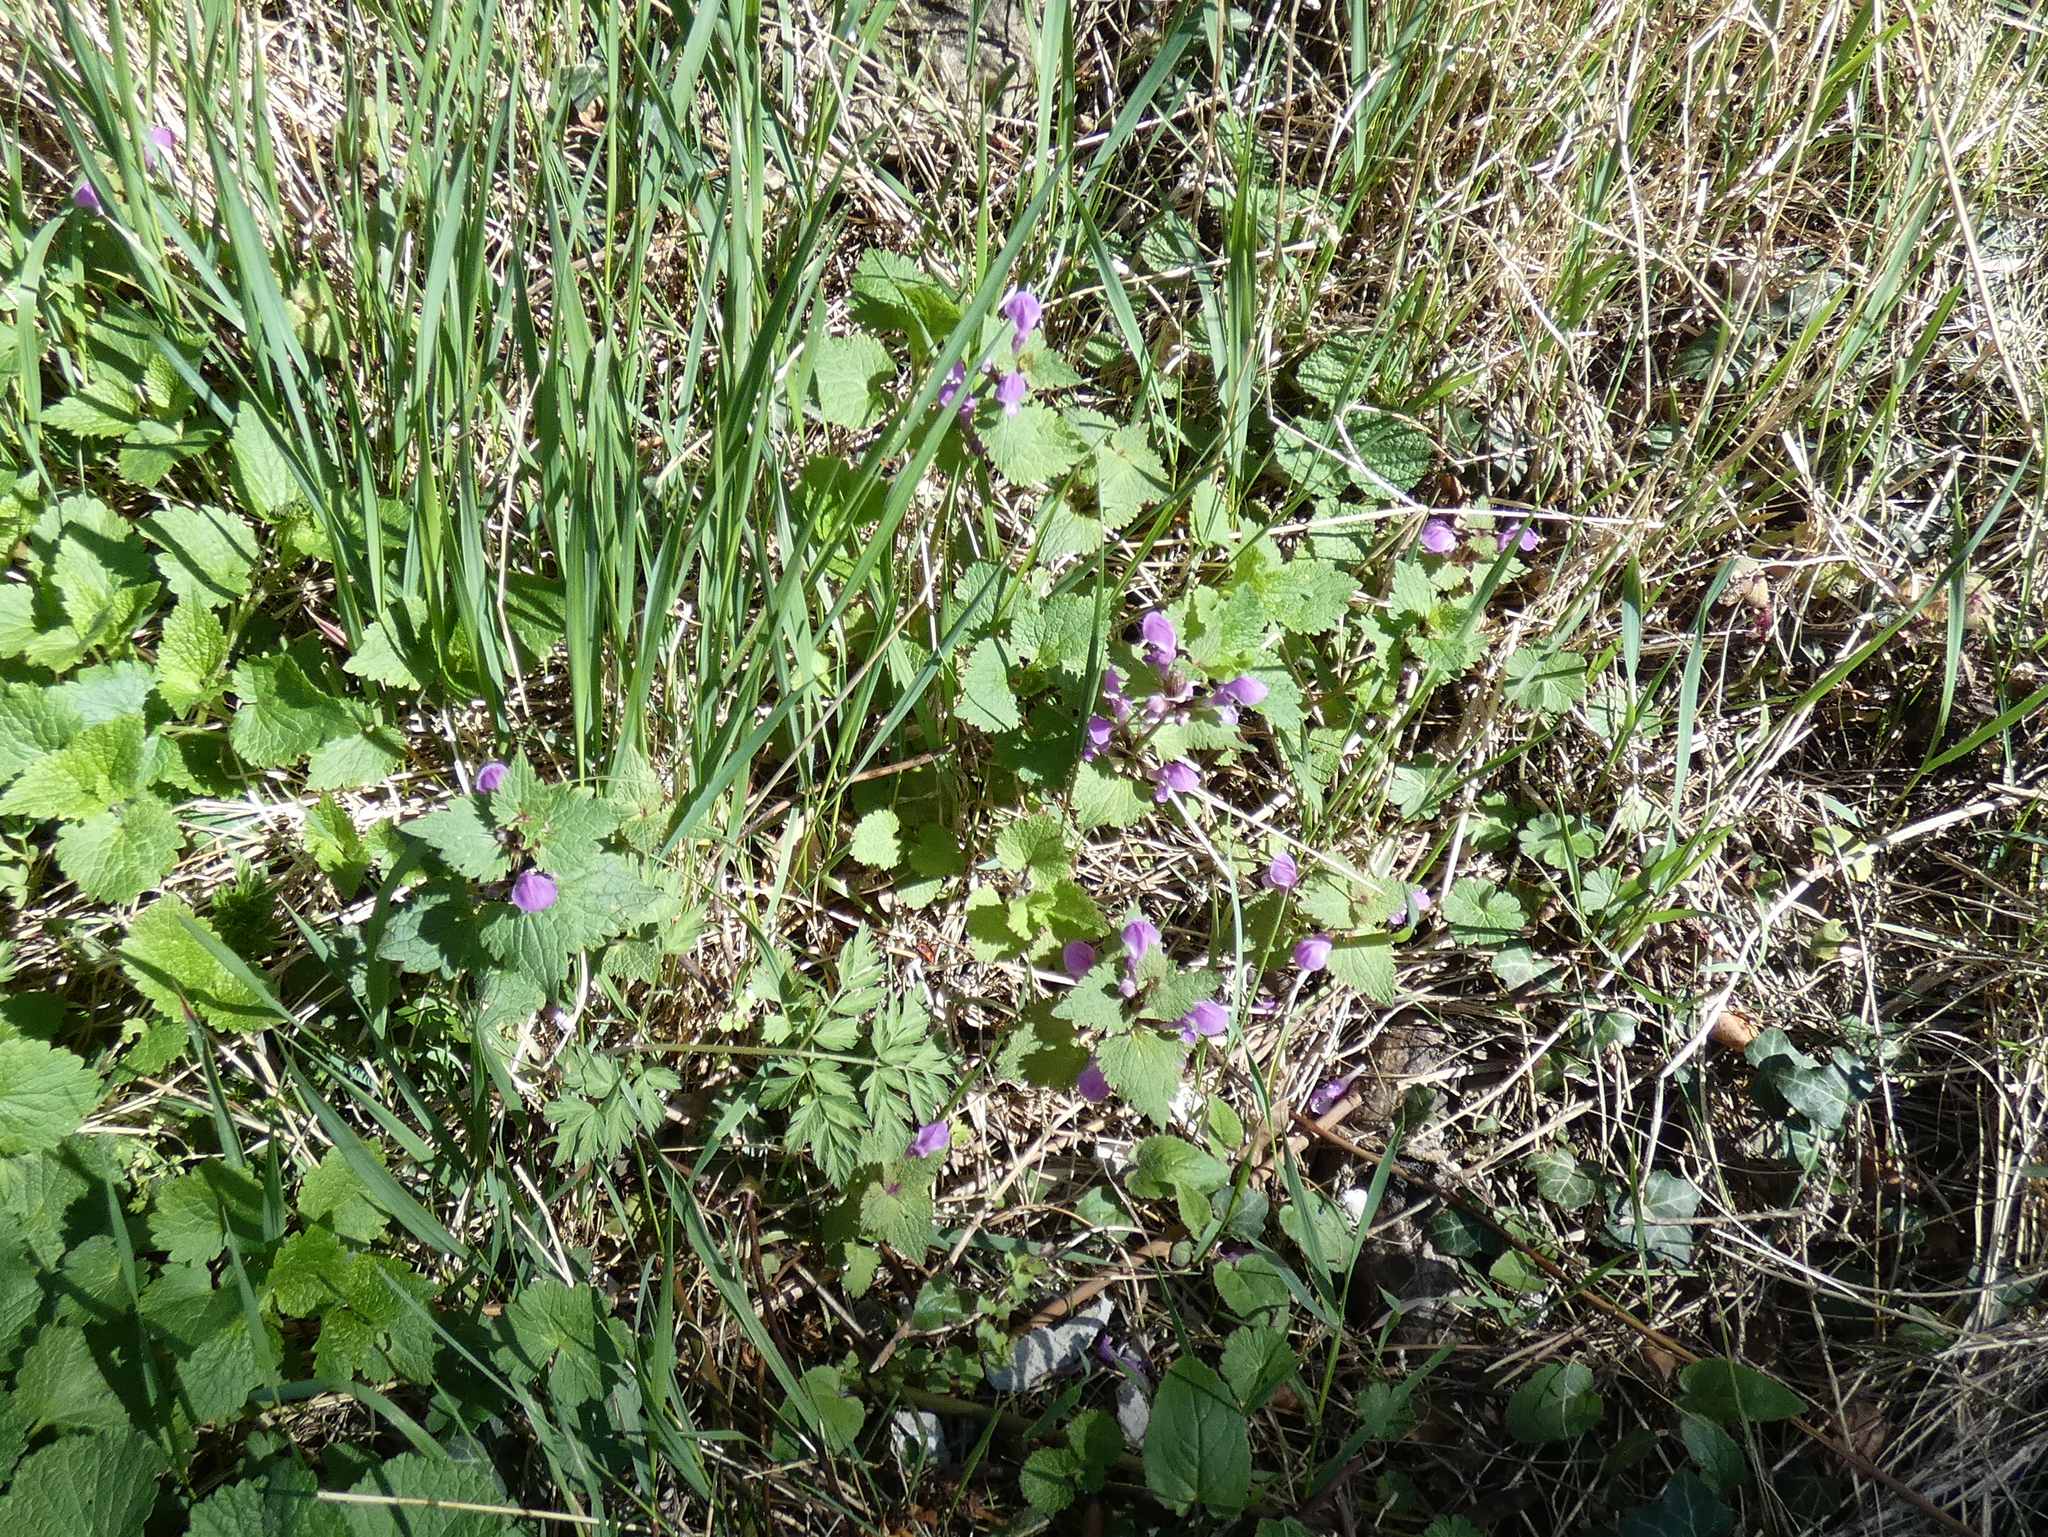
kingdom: Plantae
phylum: Tracheophyta
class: Magnoliopsida
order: Lamiales
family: Lamiaceae
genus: Lamium
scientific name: Lamium maculatum
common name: Spotted dead-nettle
